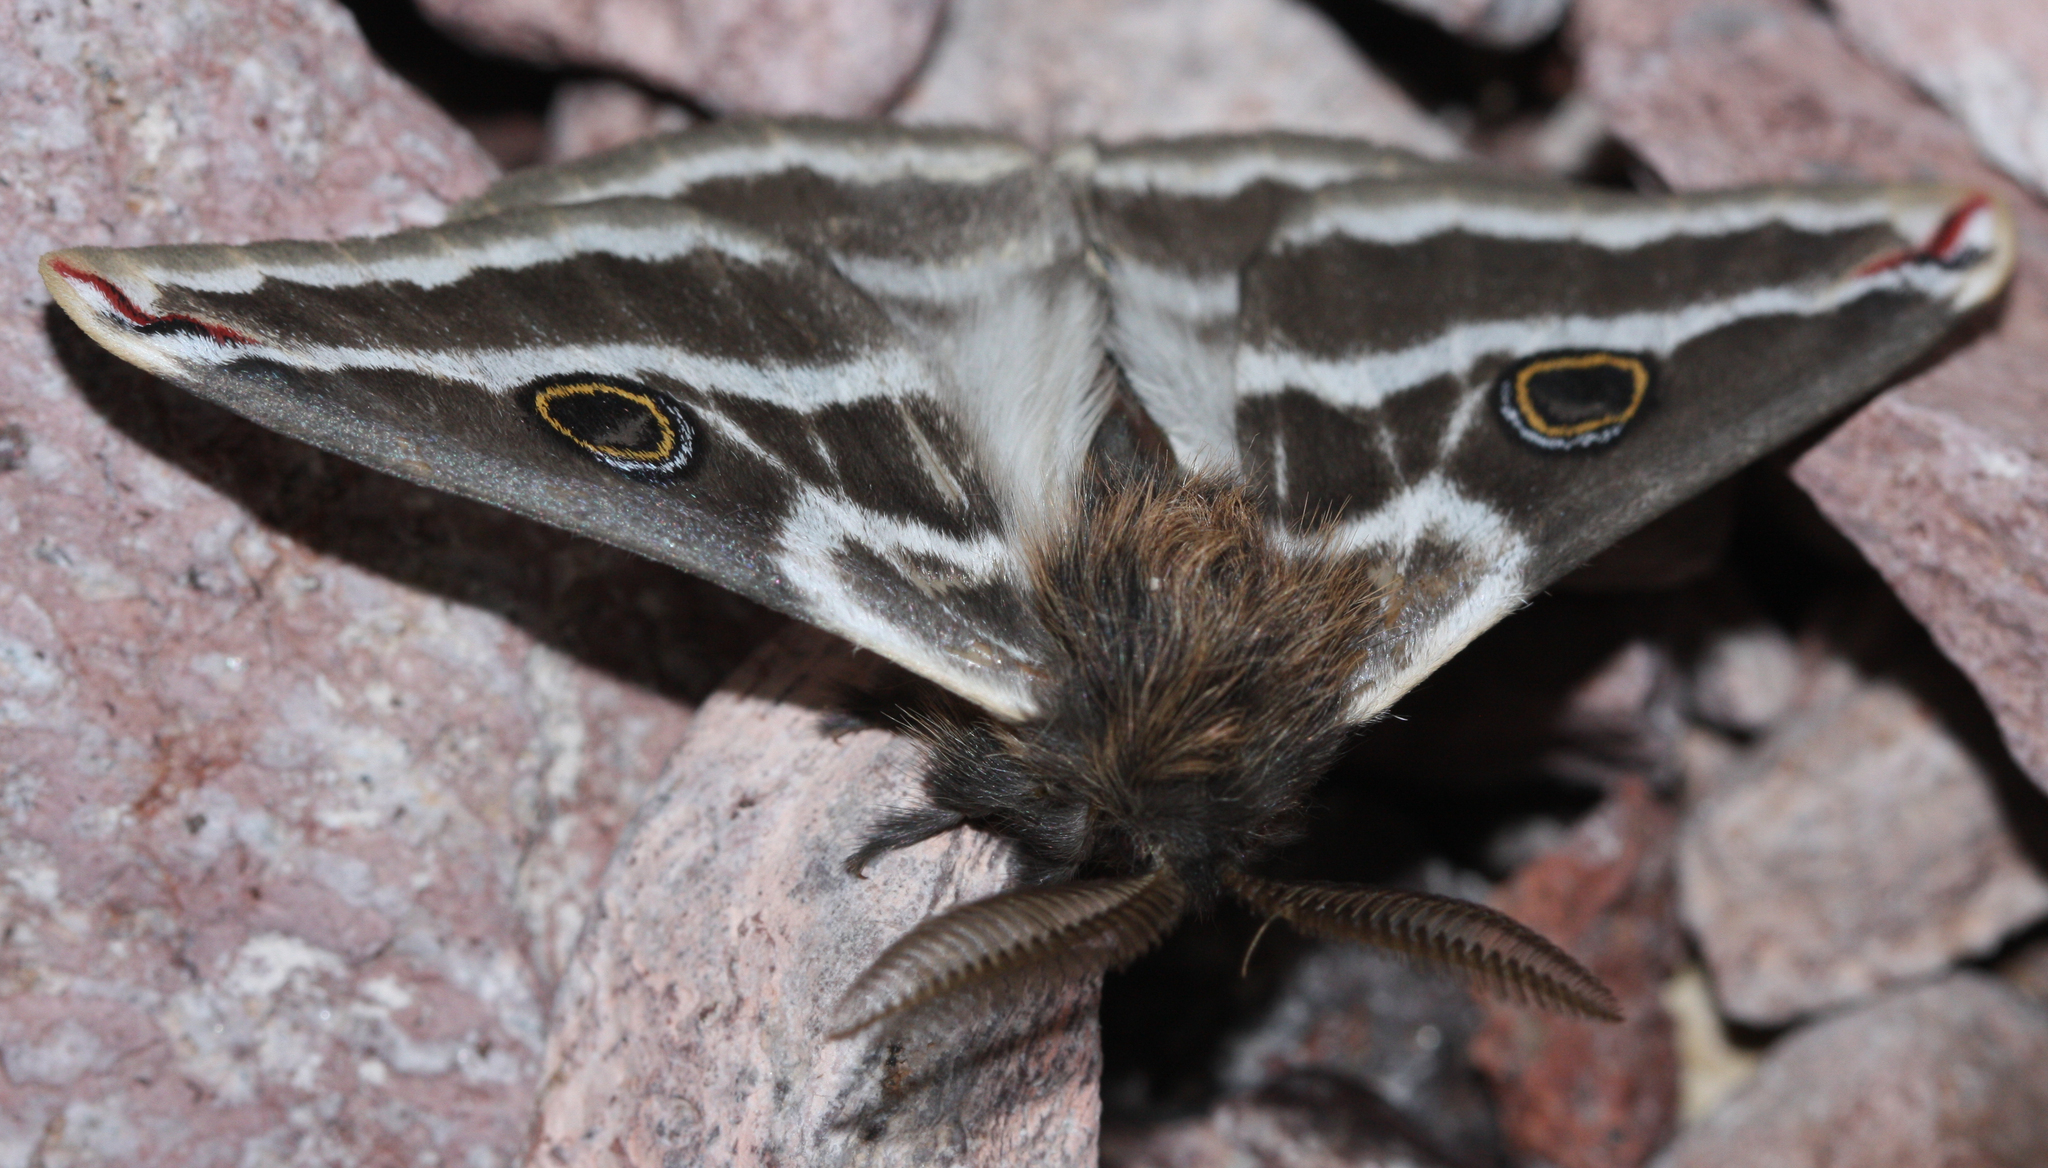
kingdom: Animalia
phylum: Arthropoda
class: Insecta
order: Lepidoptera
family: Saturniidae
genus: Saturnia
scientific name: Saturnia anona
